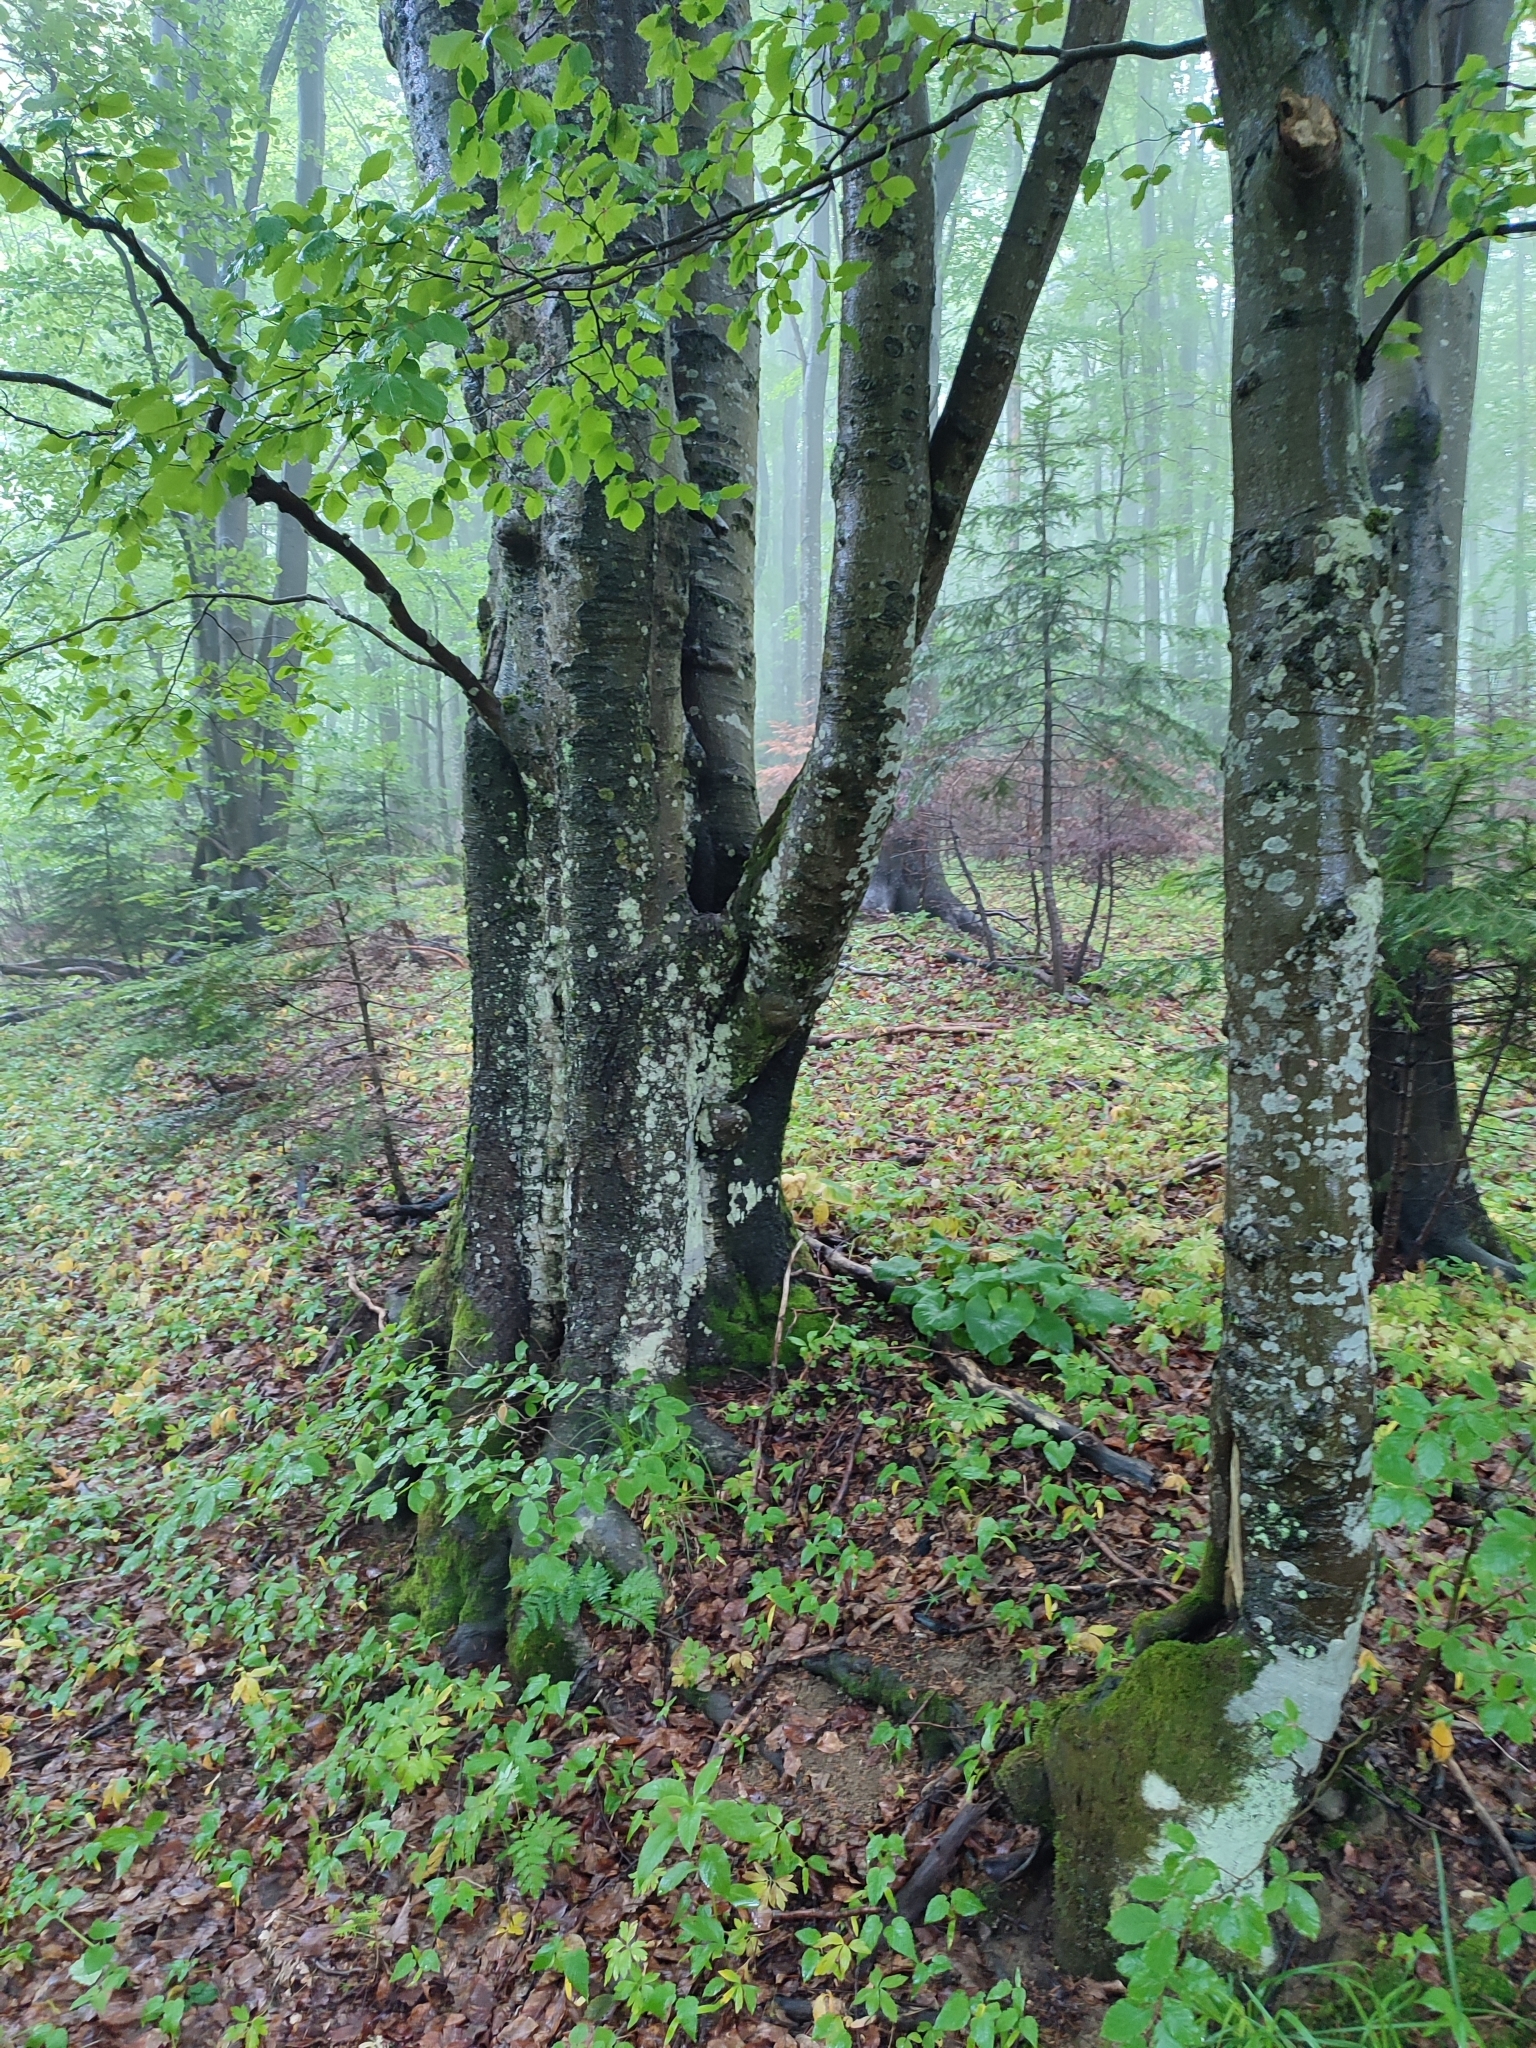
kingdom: Plantae
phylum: Tracheophyta
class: Magnoliopsida
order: Fagales
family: Fagaceae
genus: Fagus
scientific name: Fagus sylvatica
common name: Beech
